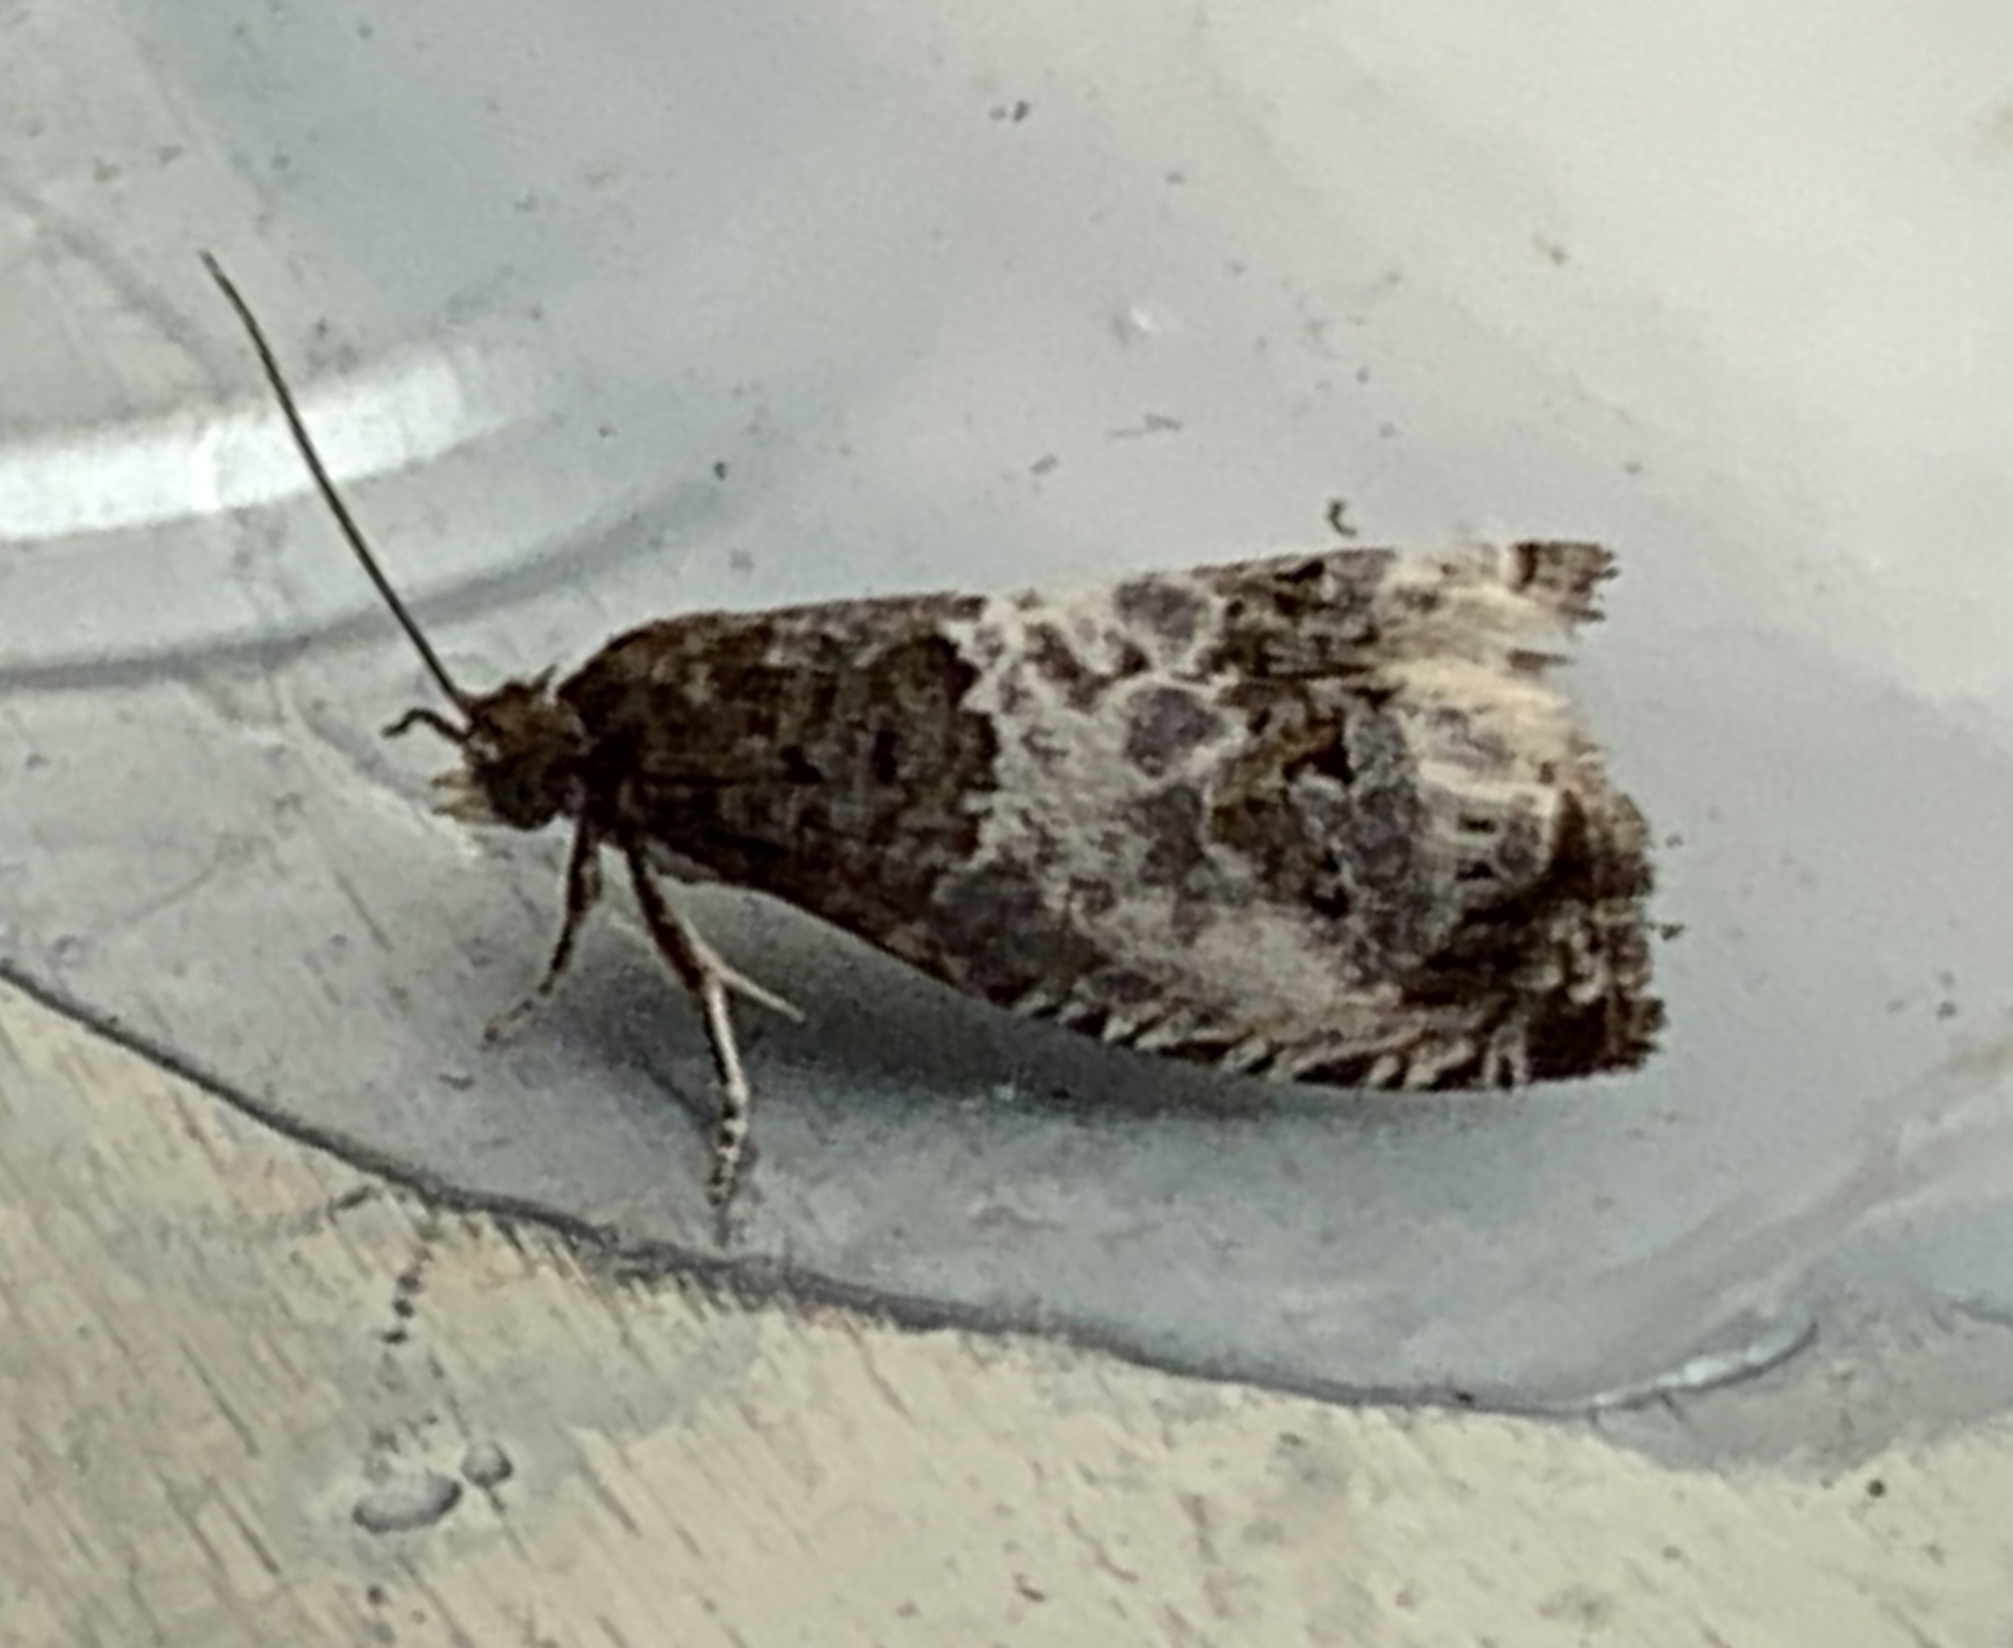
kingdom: Animalia
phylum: Arthropoda
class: Insecta
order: Lepidoptera
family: Tortricidae
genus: Notocelia
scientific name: Notocelia rosaecolana
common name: Common rose bell
